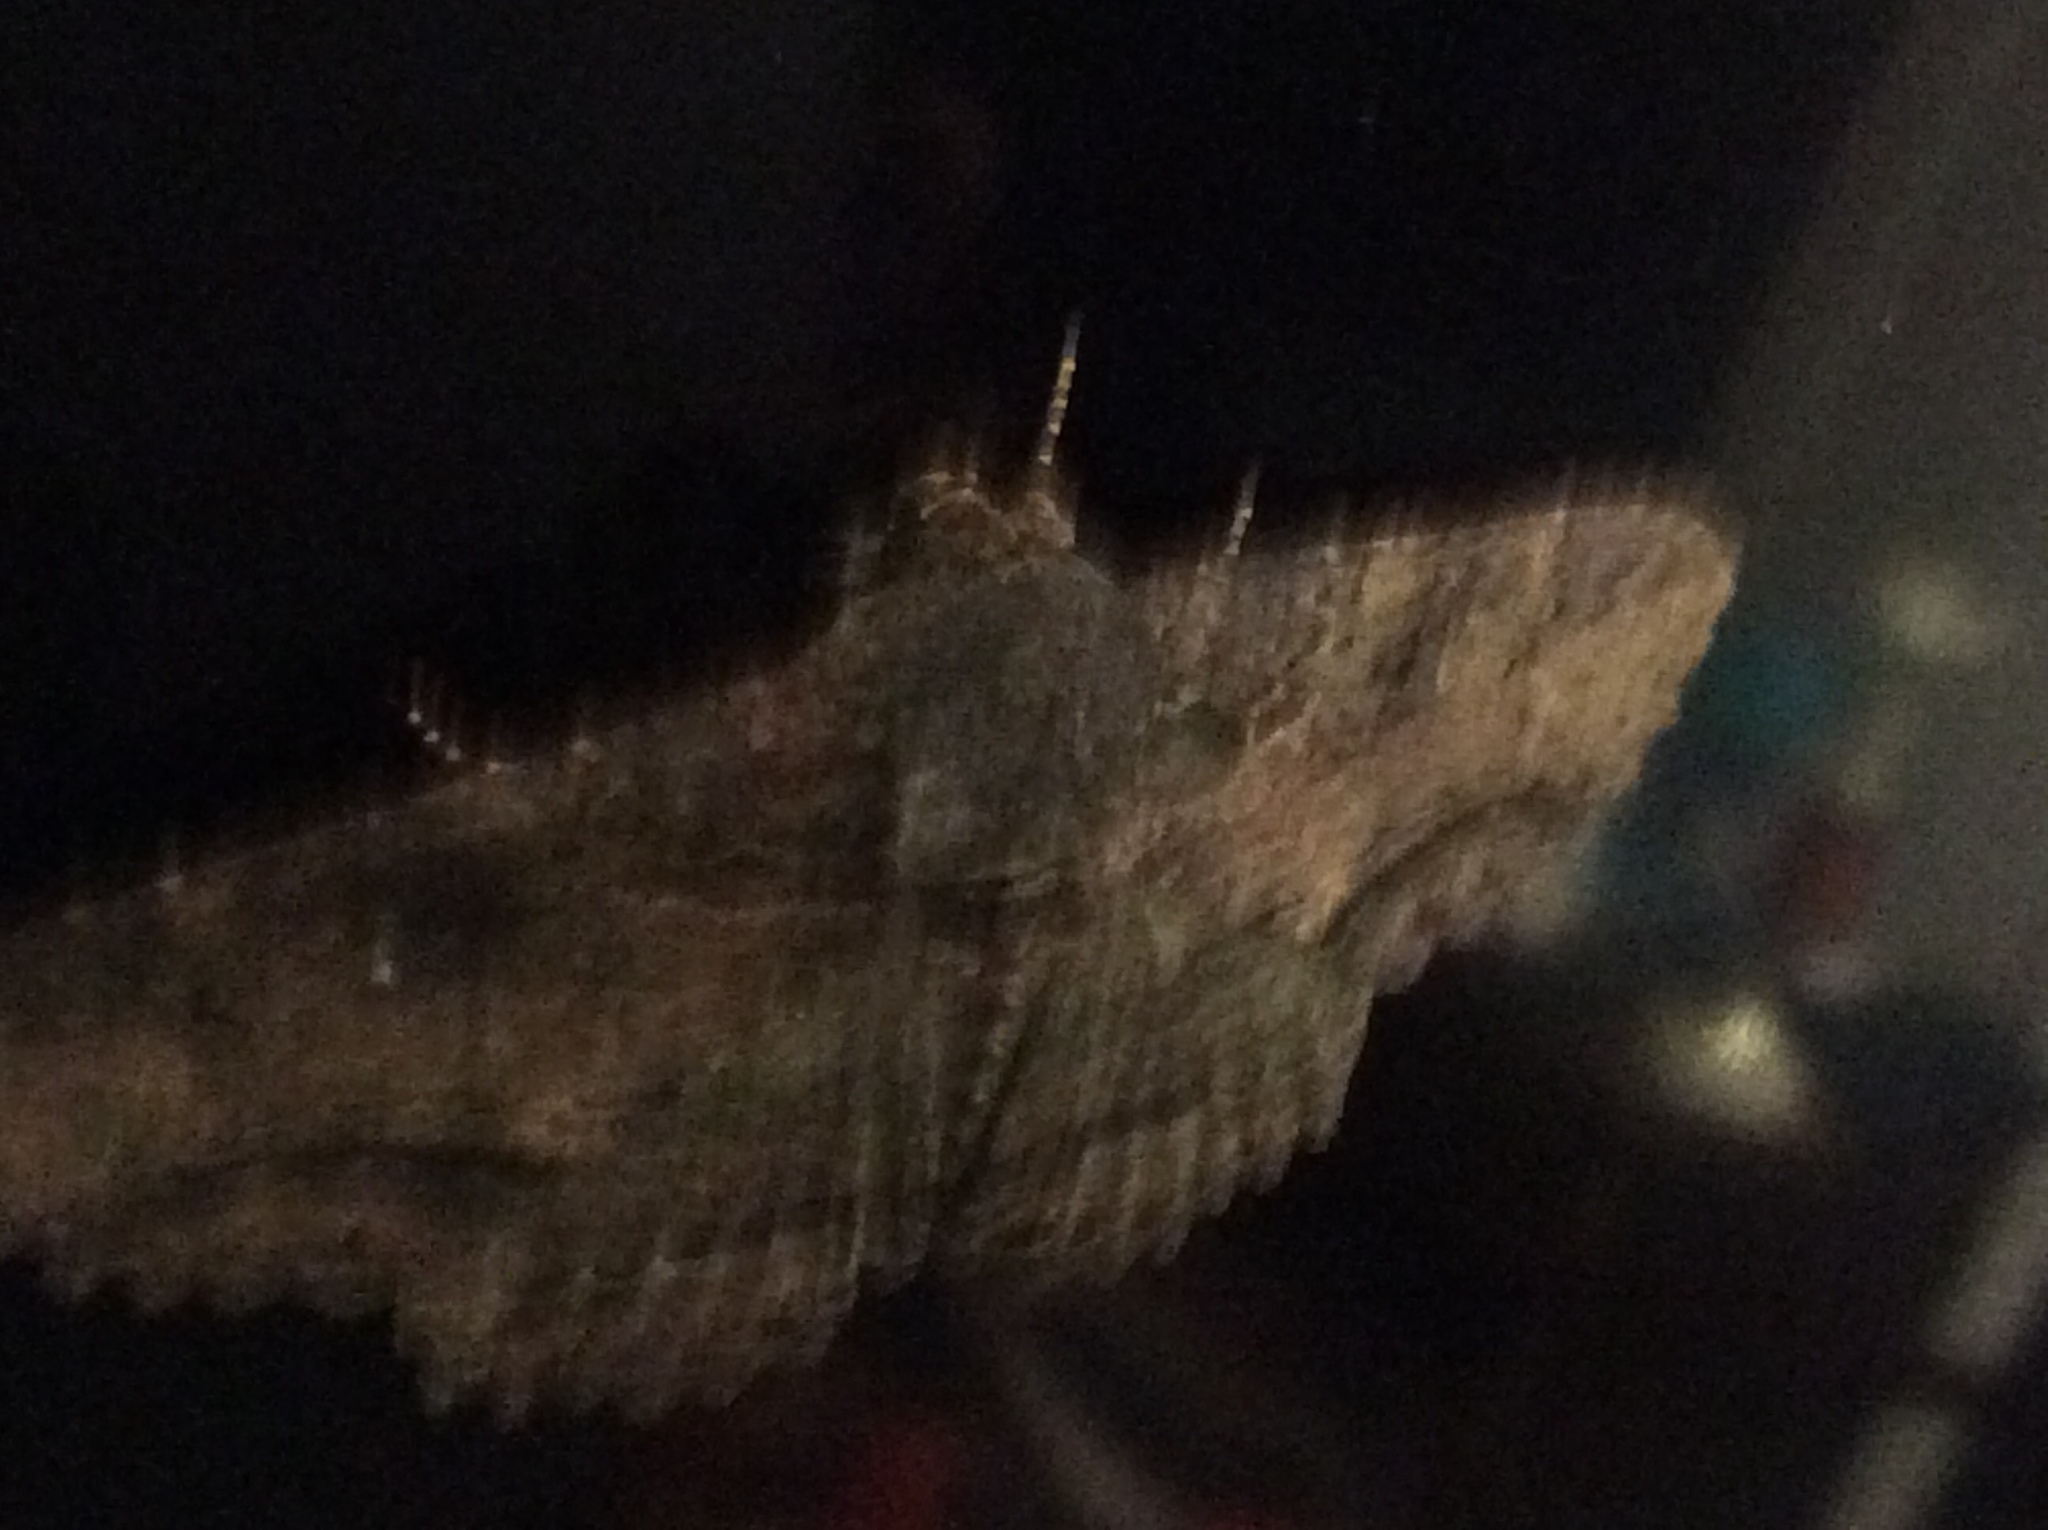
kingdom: Animalia
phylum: Arthropoda
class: Insecta
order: Lepidoptera
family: Erebidae
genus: Zale
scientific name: Zale lunata
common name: Lunate zale moth
